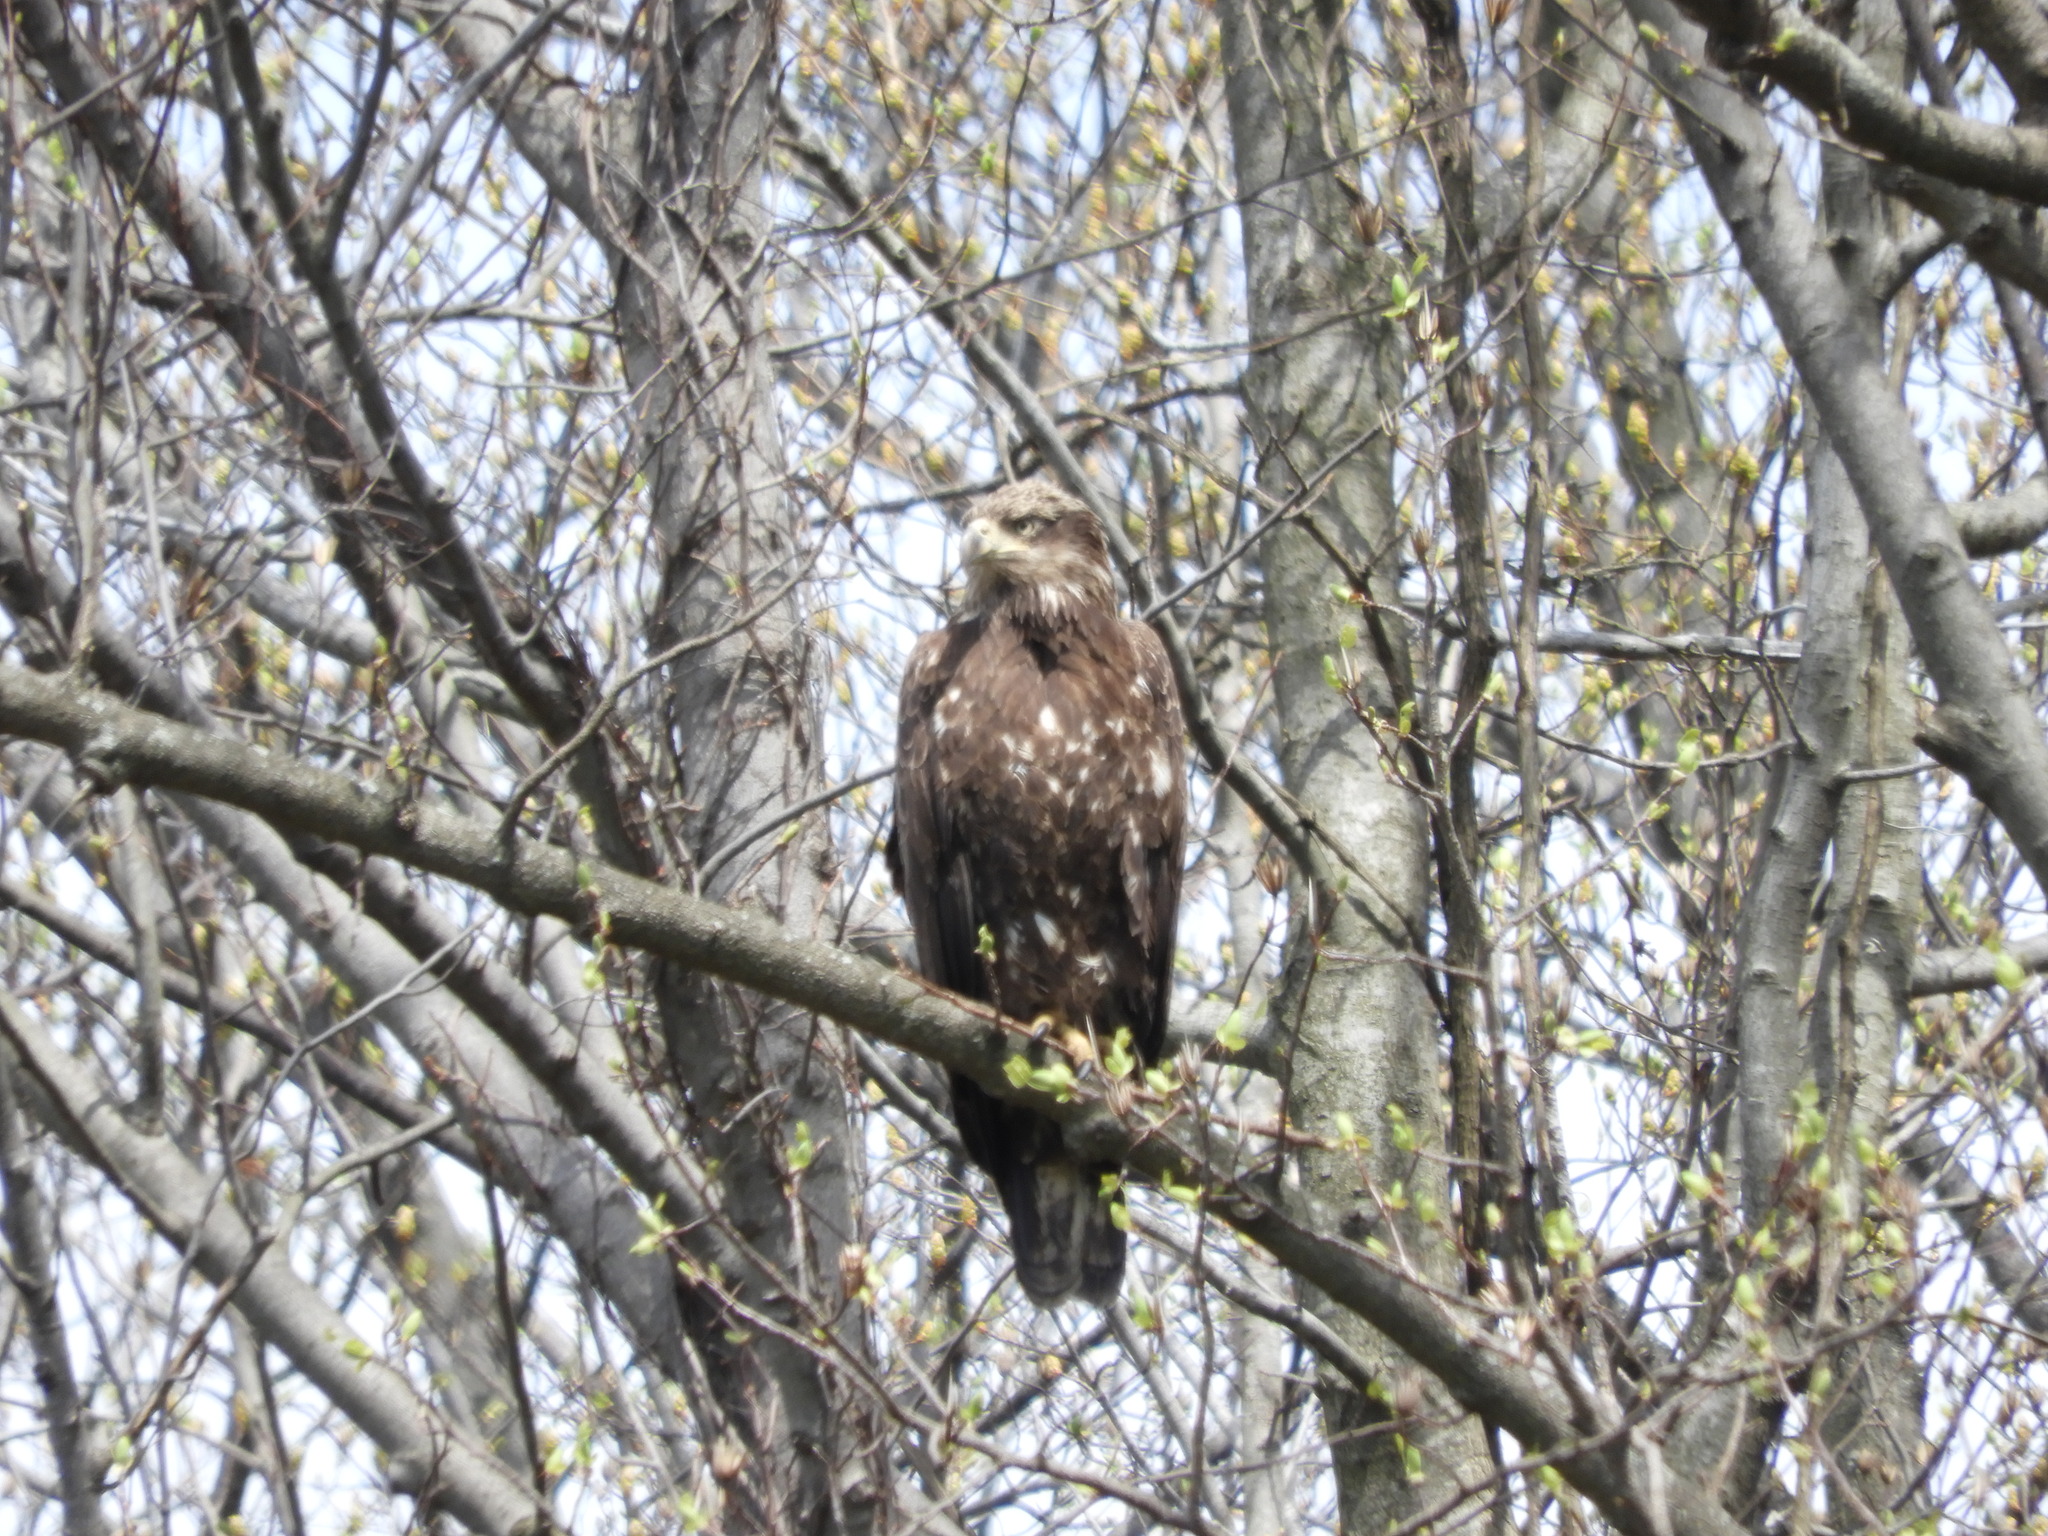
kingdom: Animalia
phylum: Chordata
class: Aves
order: Accipitriformes
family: Accipitridae
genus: Haliaeetus
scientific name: Haliaeetus leucocephalus
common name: Bald eagle
